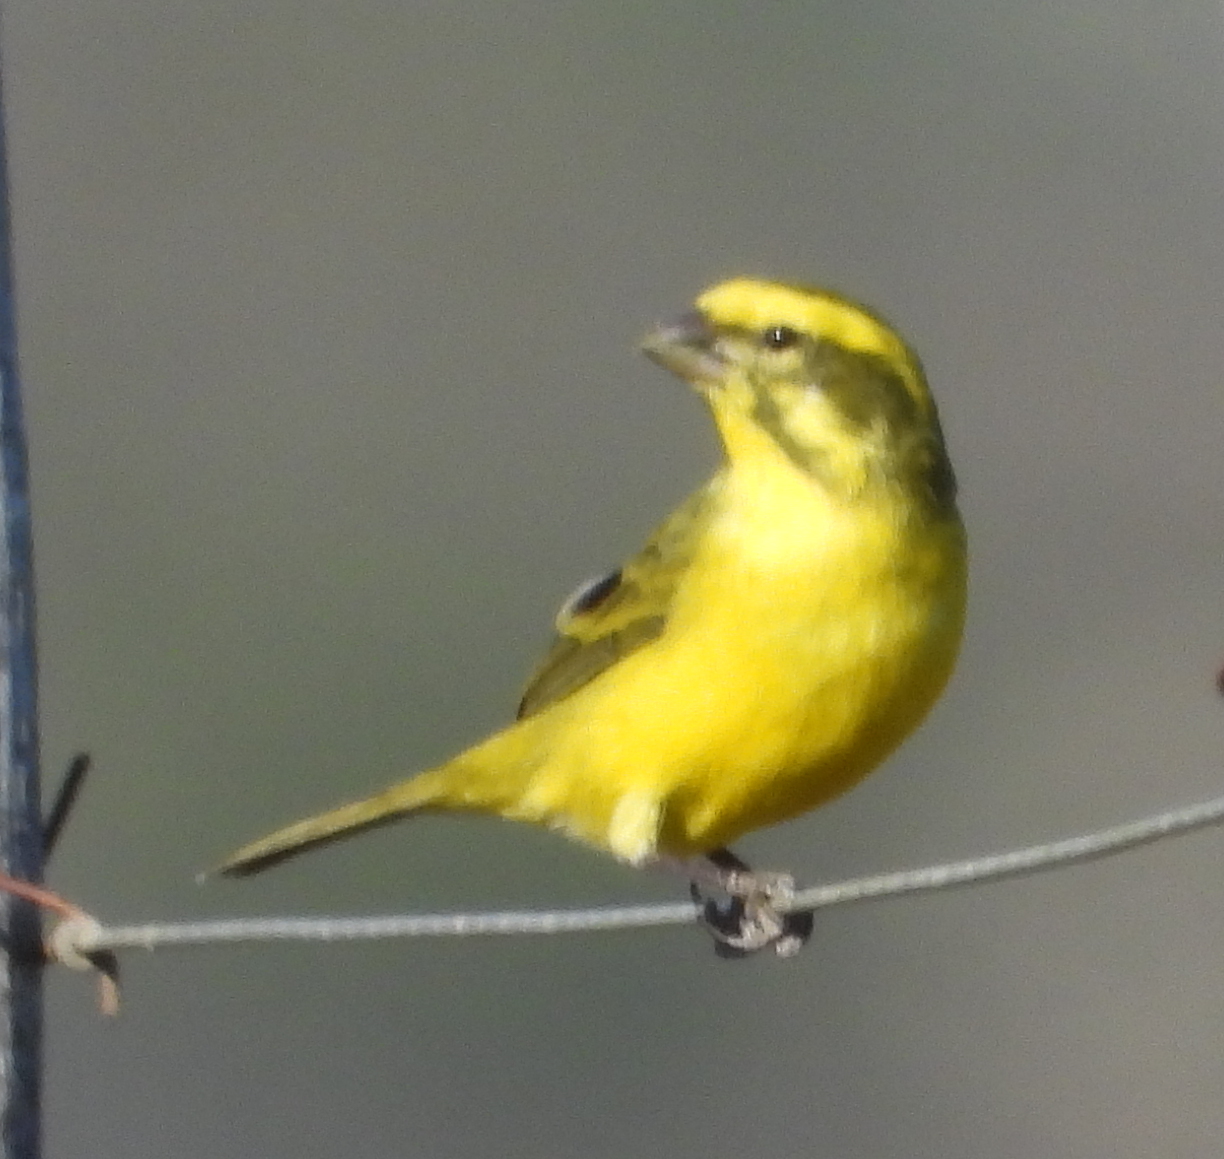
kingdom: Animalia
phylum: Chordata
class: Aves
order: Passeriformes
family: Fringillidae
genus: Crithagra
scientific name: Crithagra flaviventris
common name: Yellow canary
